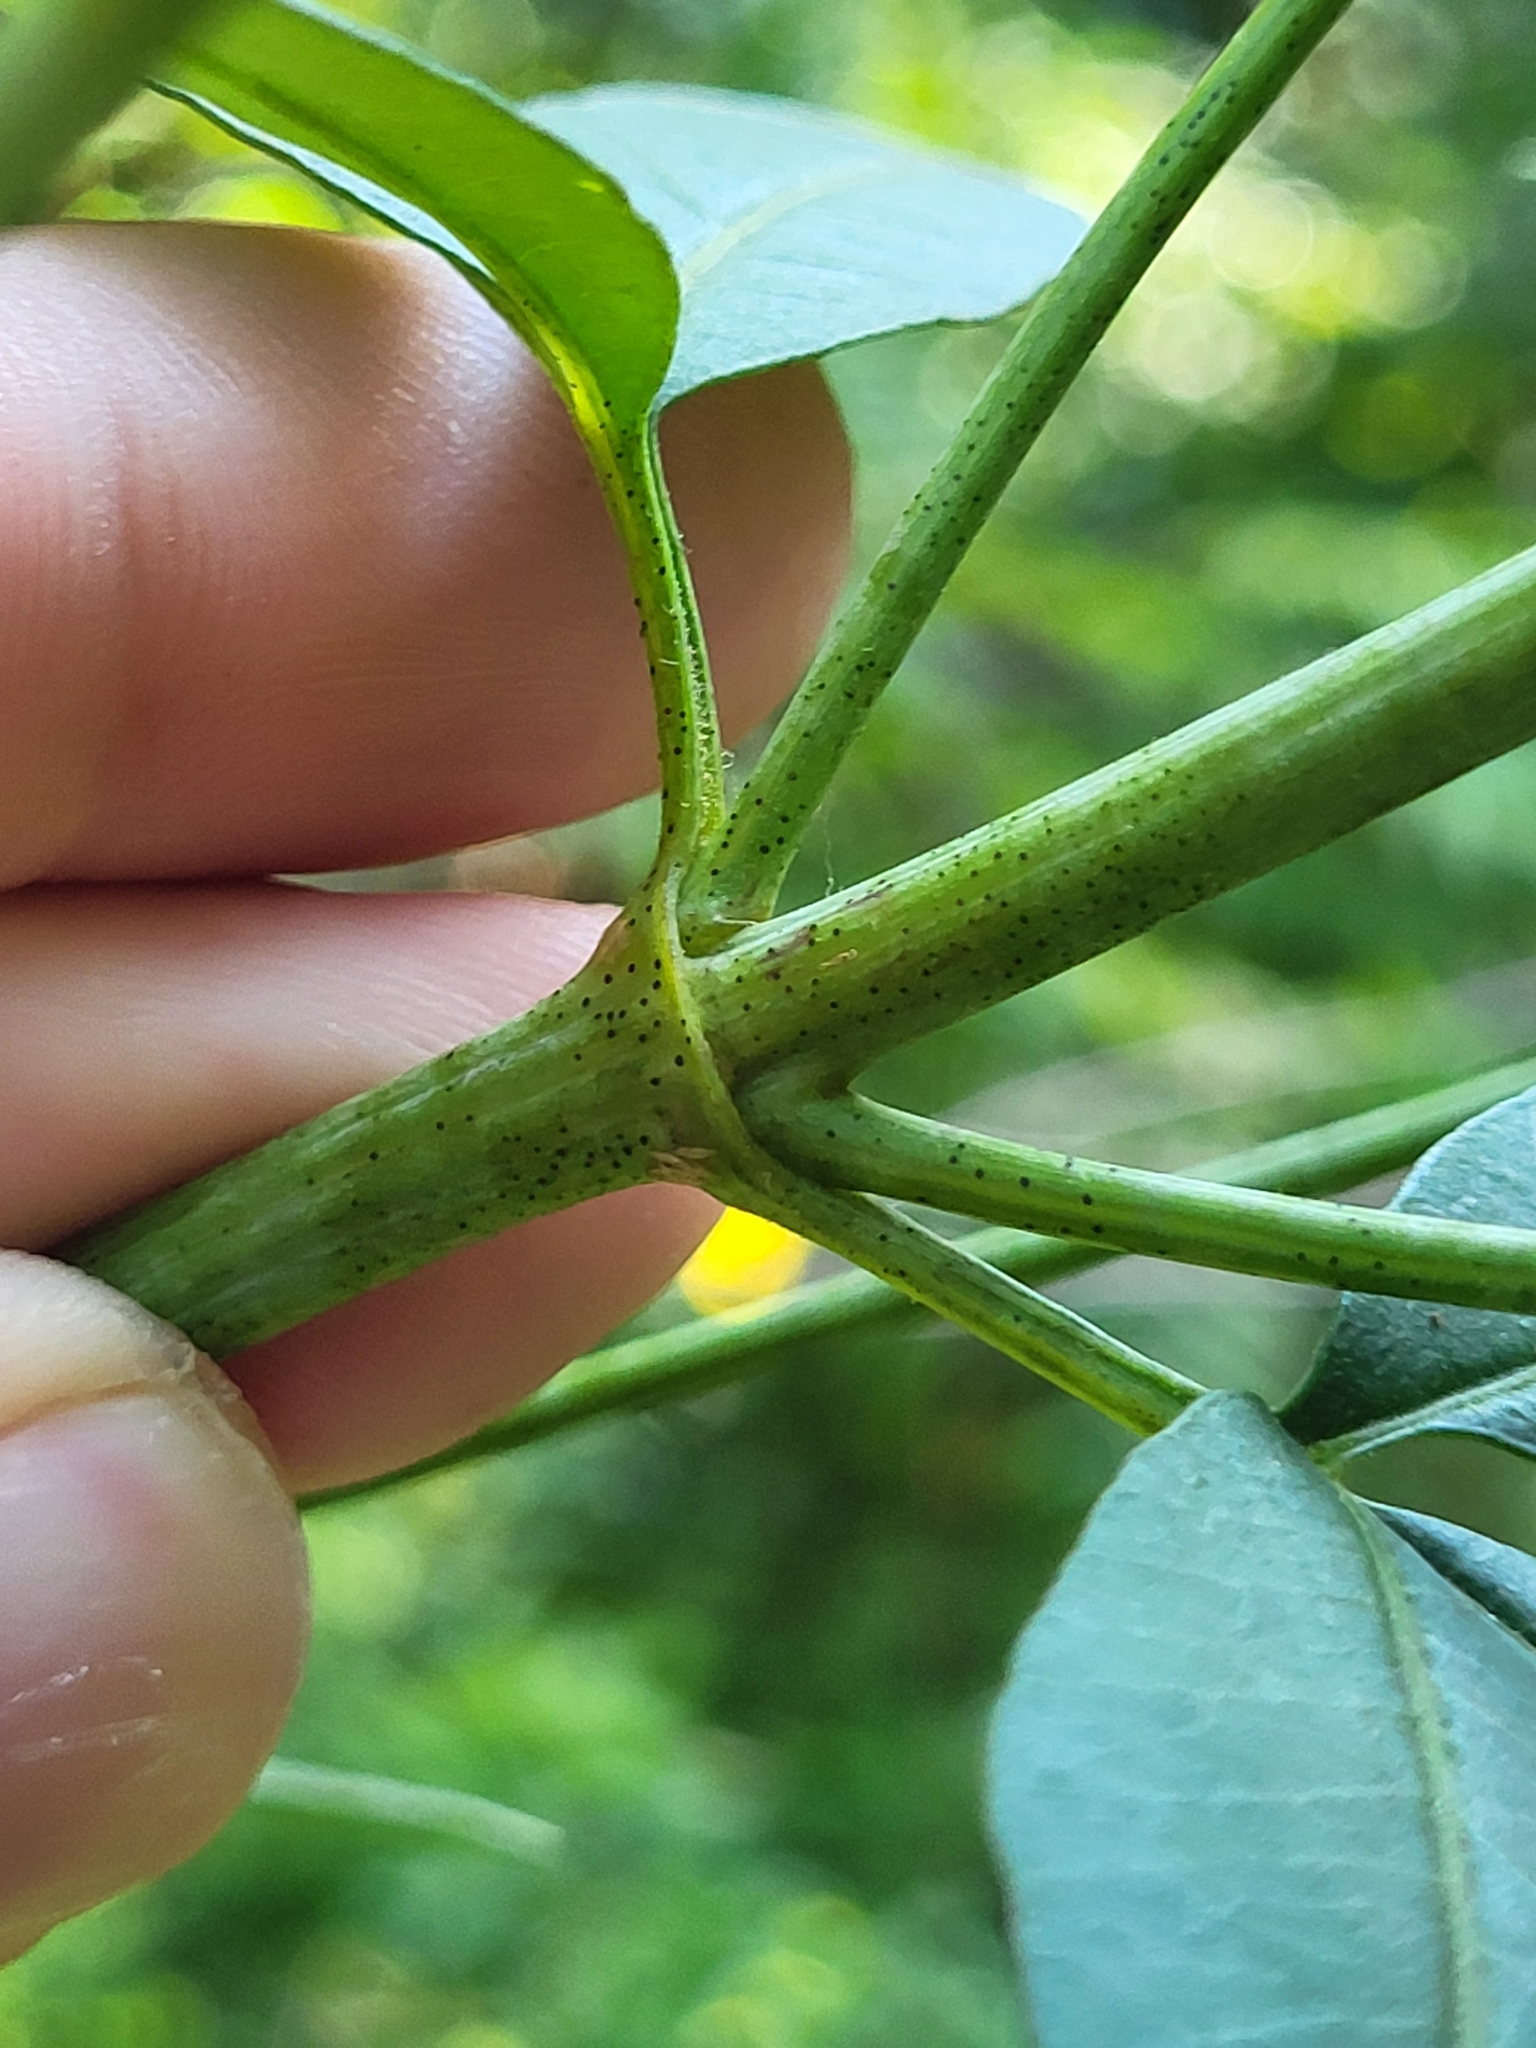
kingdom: Plantae
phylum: Tracheophyta
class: Magnoliopsida
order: Asterales
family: Asteraceae
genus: Coreopsis
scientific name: Coreopsis tripteris
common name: Tall coreopsis
